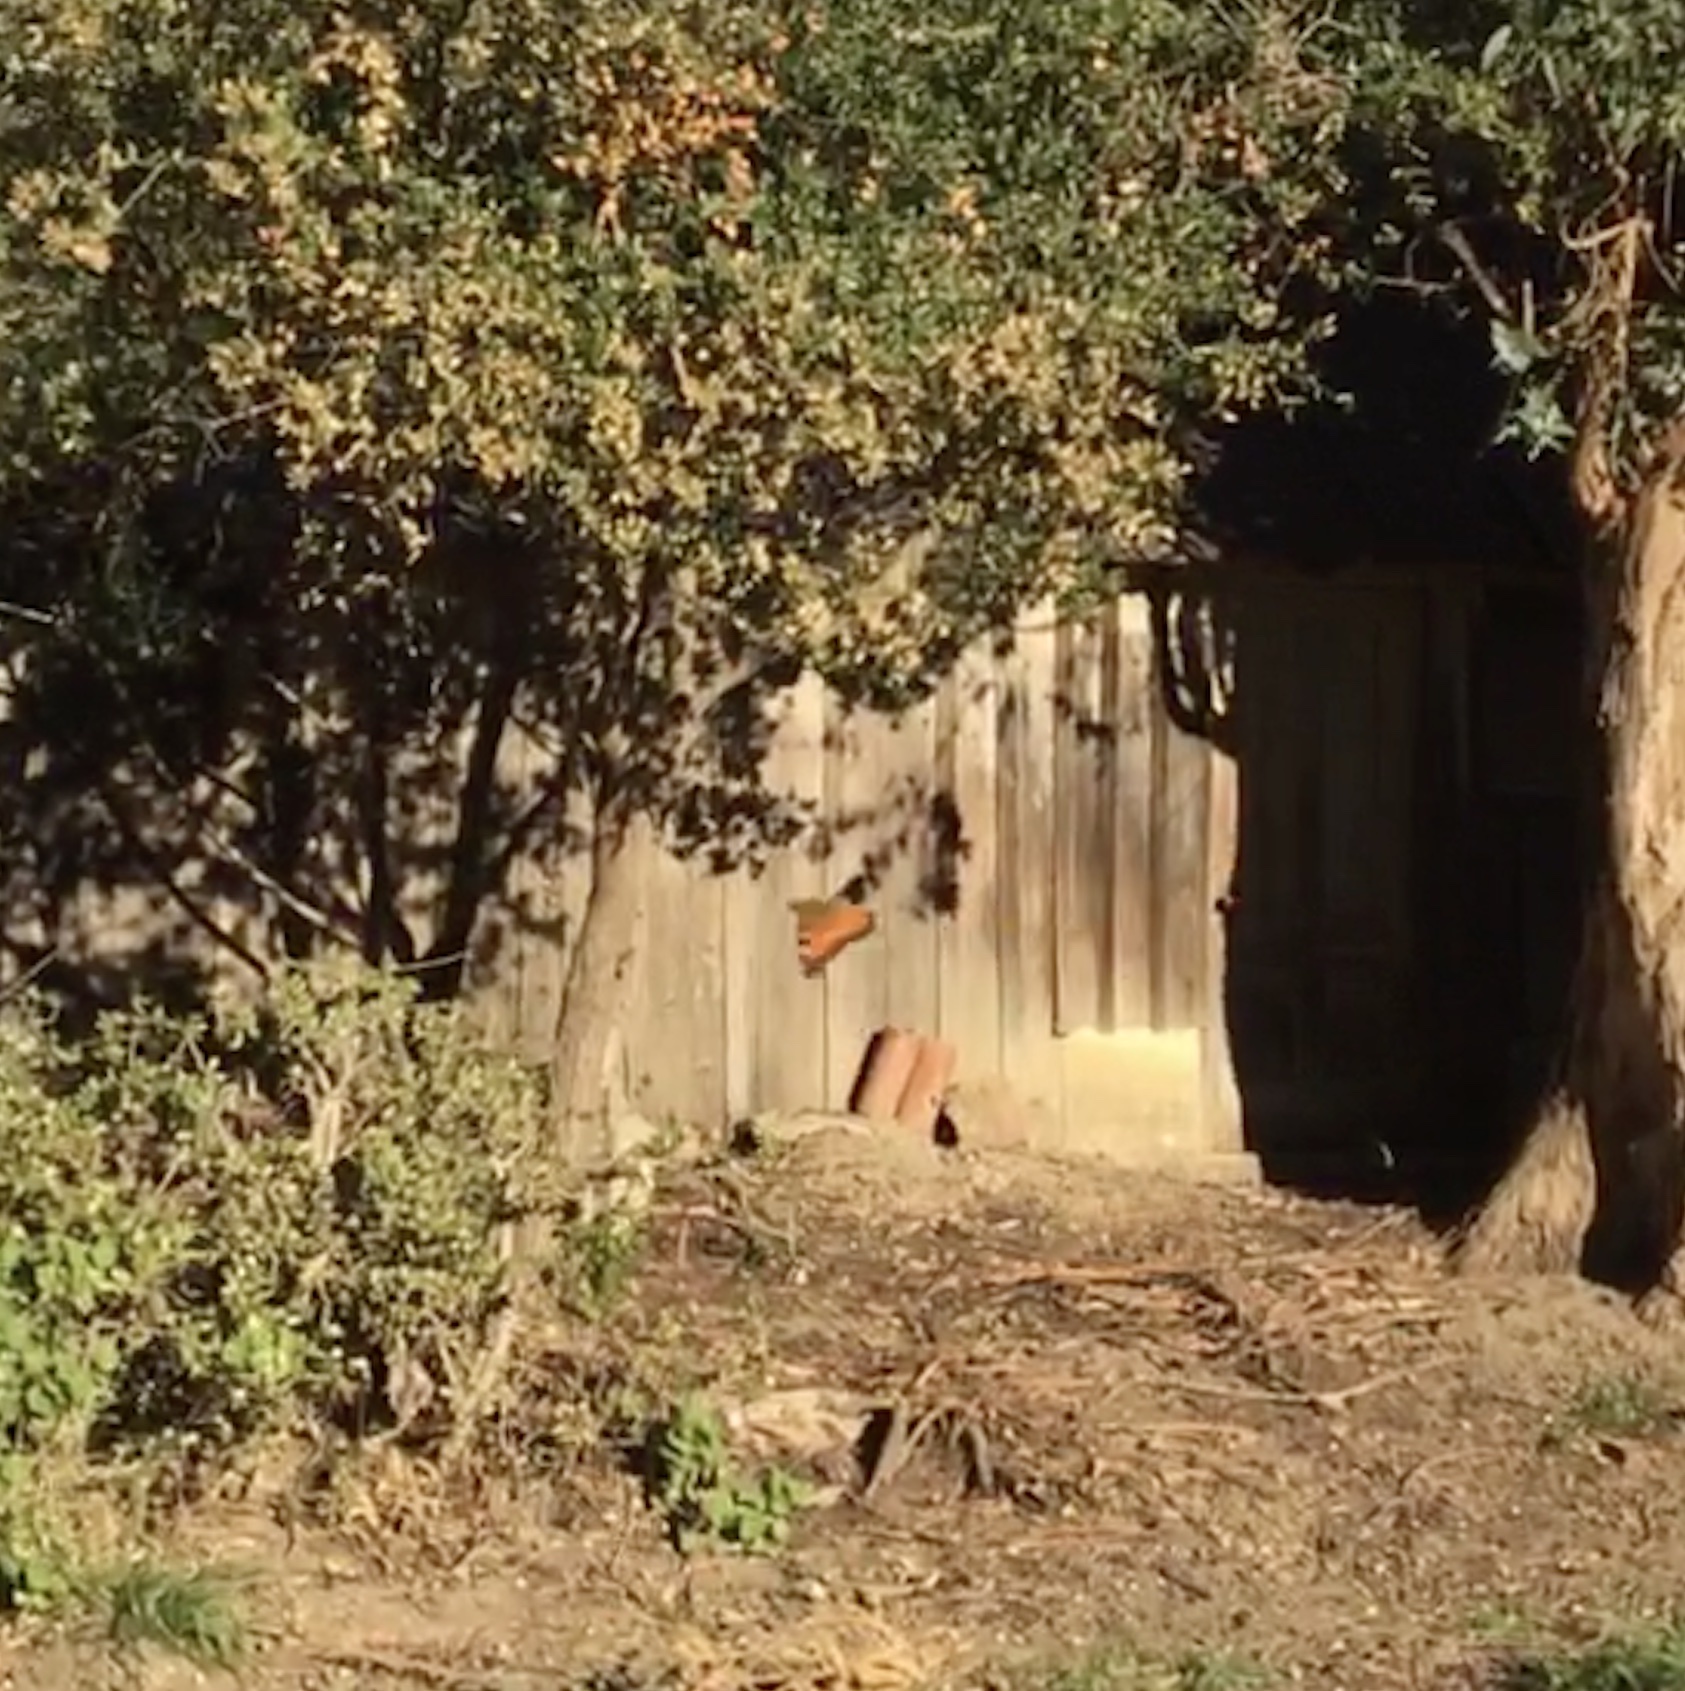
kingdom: Animalia
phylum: Arthropoda
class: Insecta
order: Lepidoptera
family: Nymphalidae
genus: Nymphalis
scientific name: Nymphalis californica
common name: California tortoiseshell
